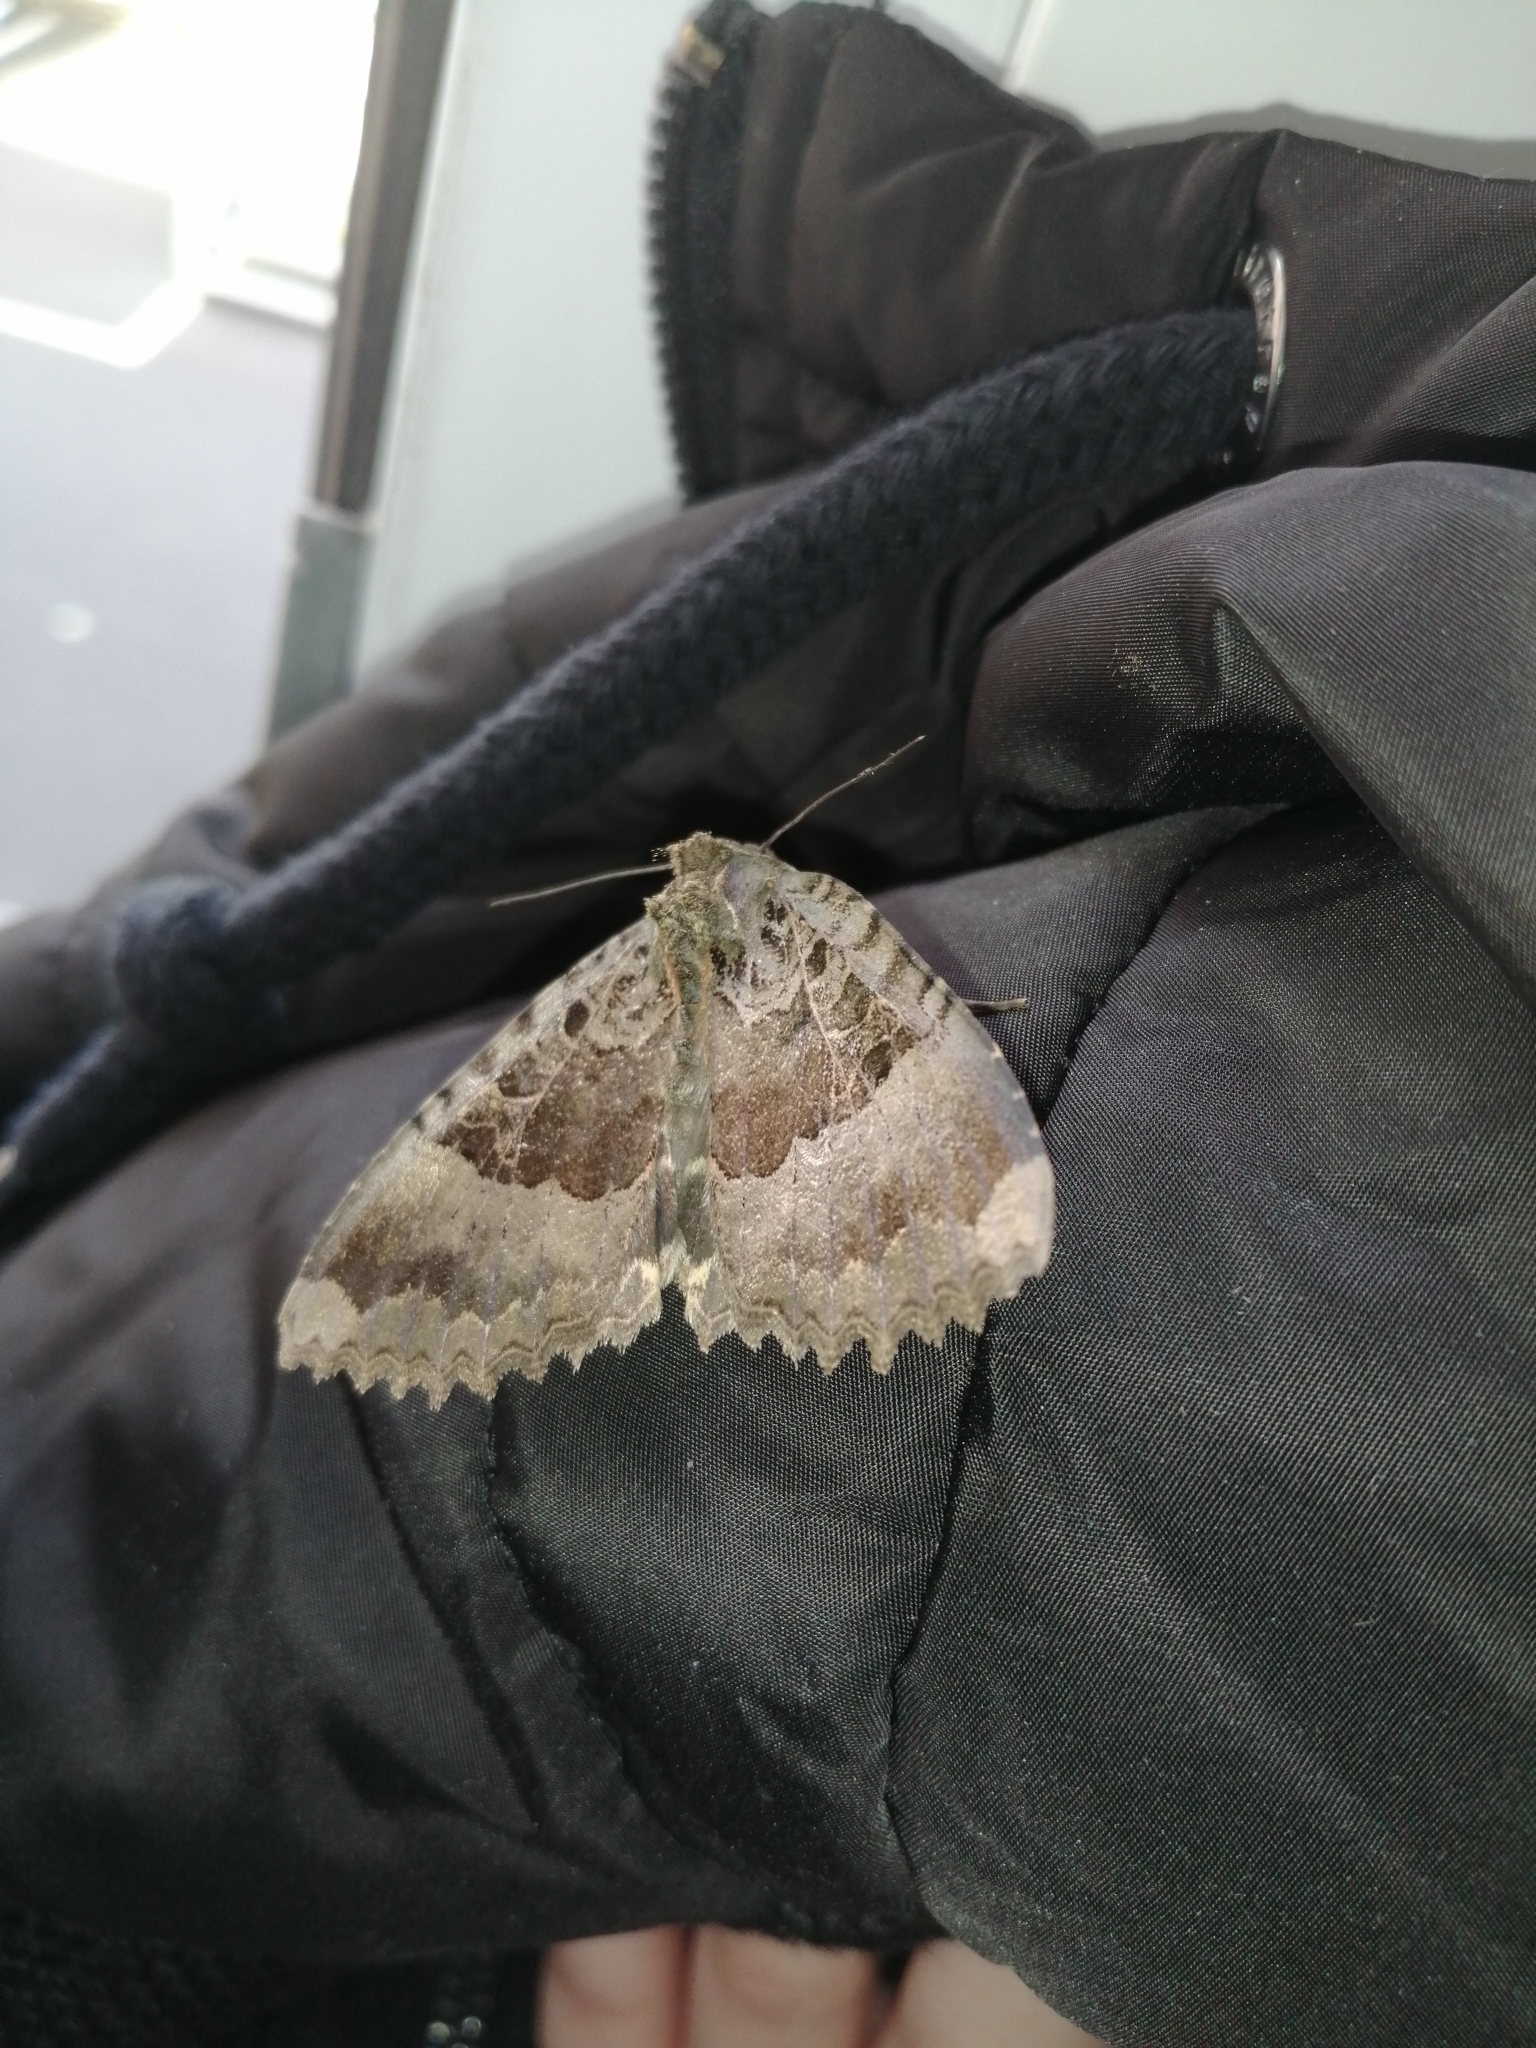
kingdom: Animalia
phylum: Arthropoda
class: Insecta
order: Lepidoptera
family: Noctuidae
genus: Mormo
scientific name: Mormo maura
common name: Old lady
